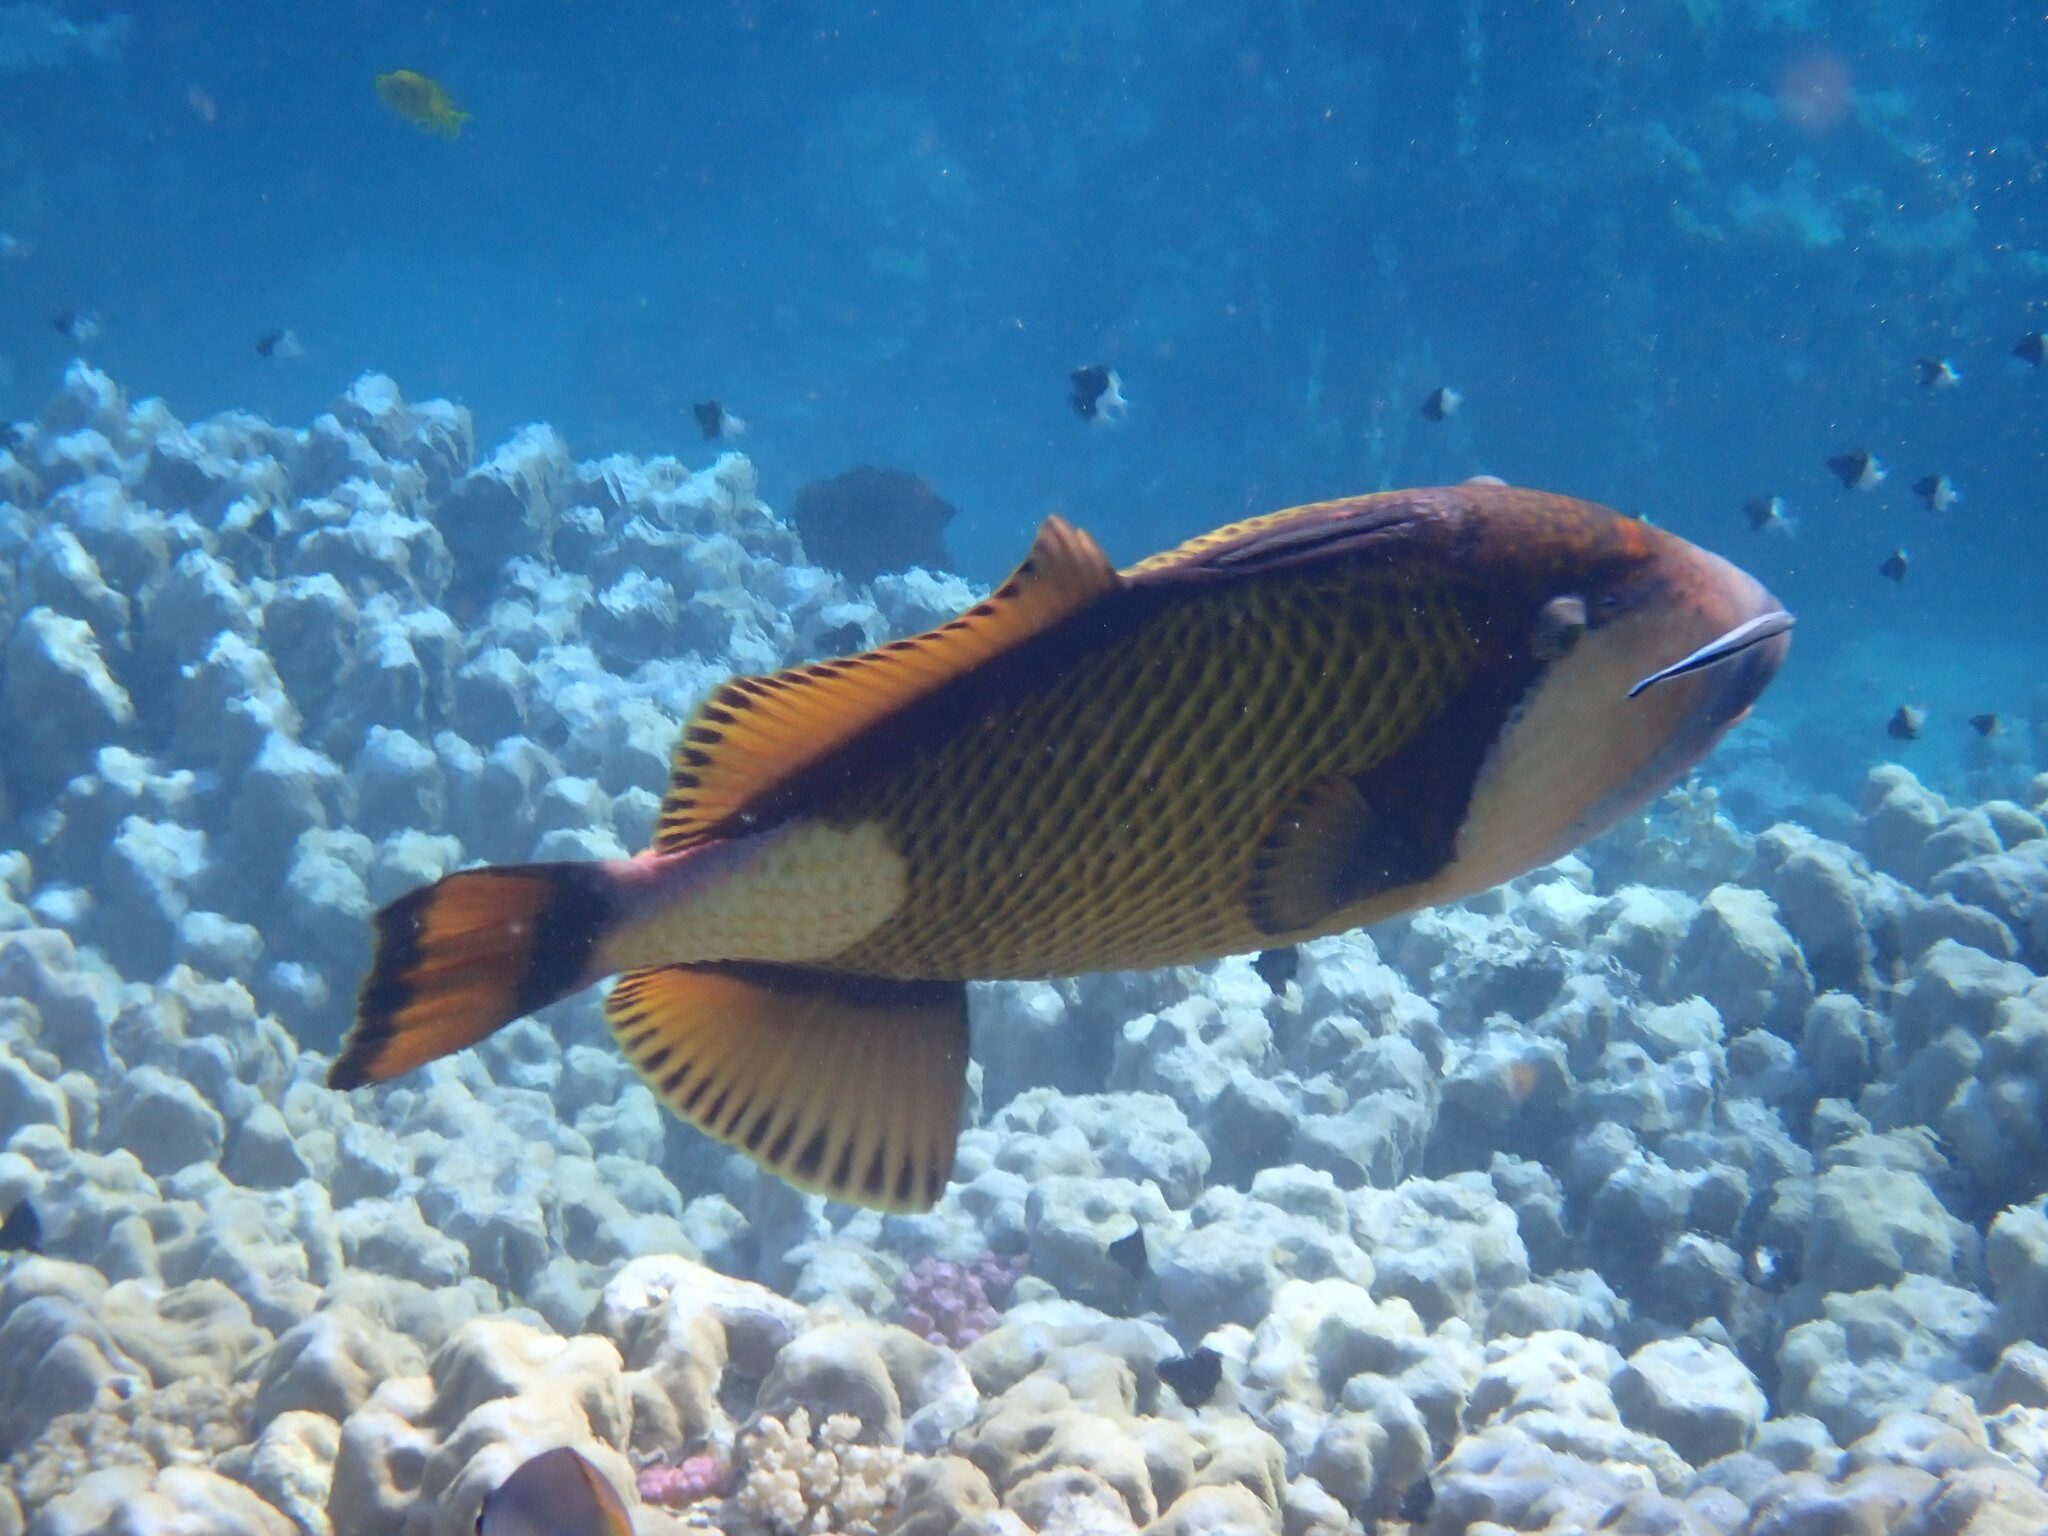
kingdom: Animalia
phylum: Chordata
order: Tetraodontiformes
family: Balistidae
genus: Balistoides
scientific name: Balistoides viridescens
